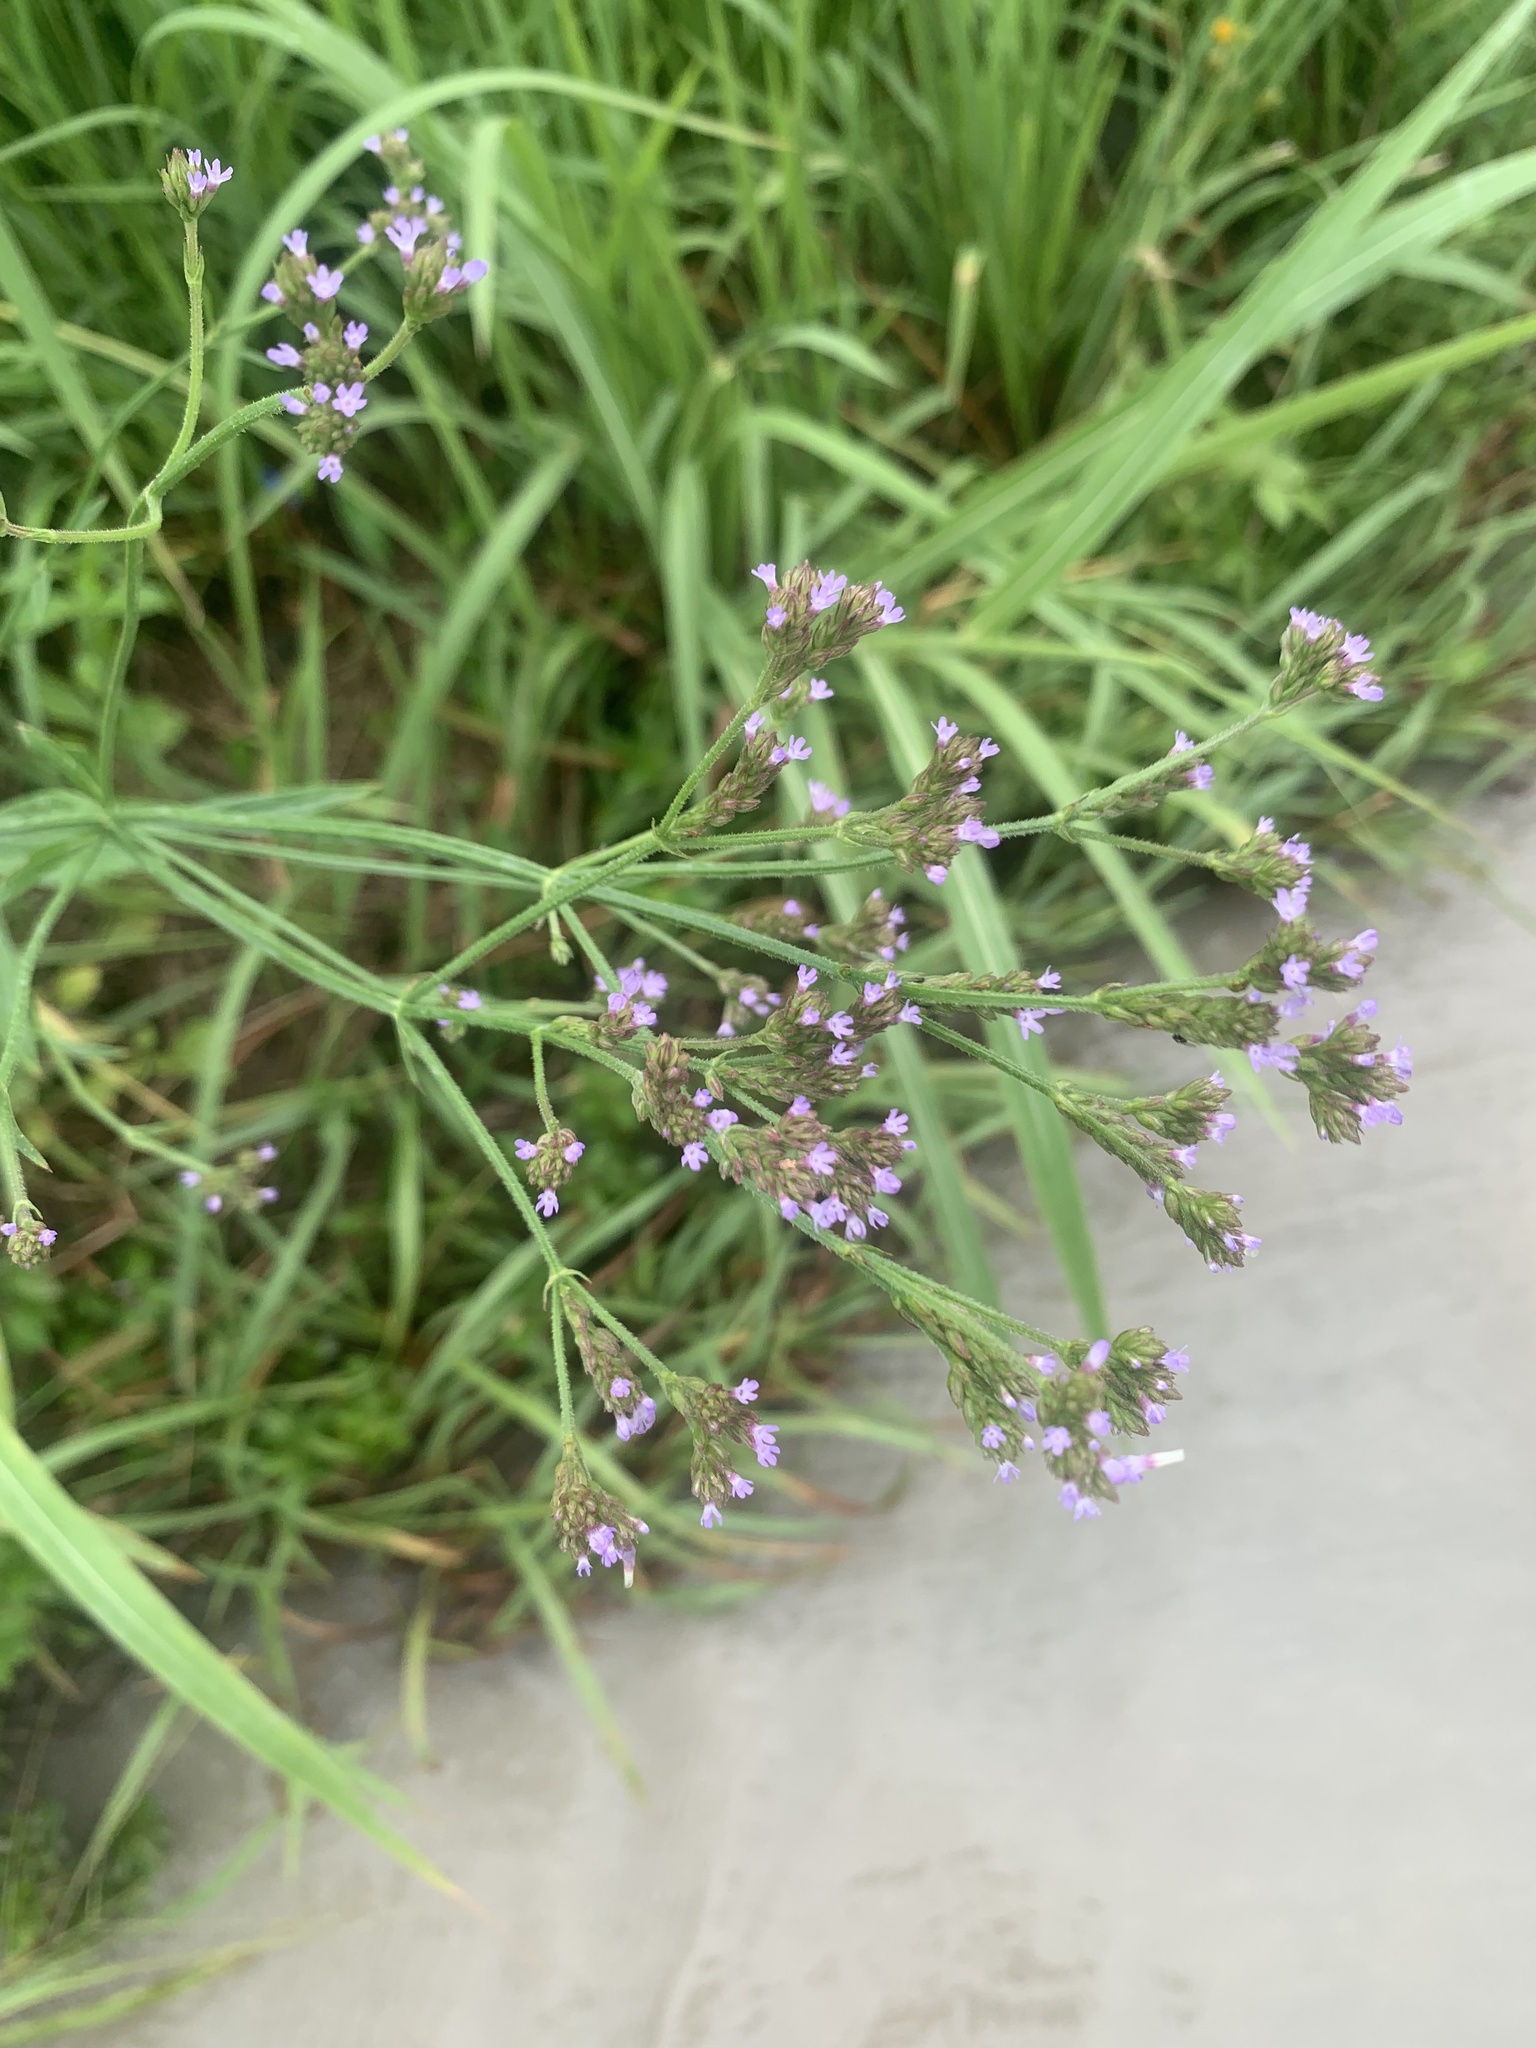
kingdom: Plantae
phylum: Tracheophyta
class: Magnoliopsida
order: Lamiales
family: Verbenaceae
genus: Verbena
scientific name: Verbena brasiliensis
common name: Brazilian vervain
